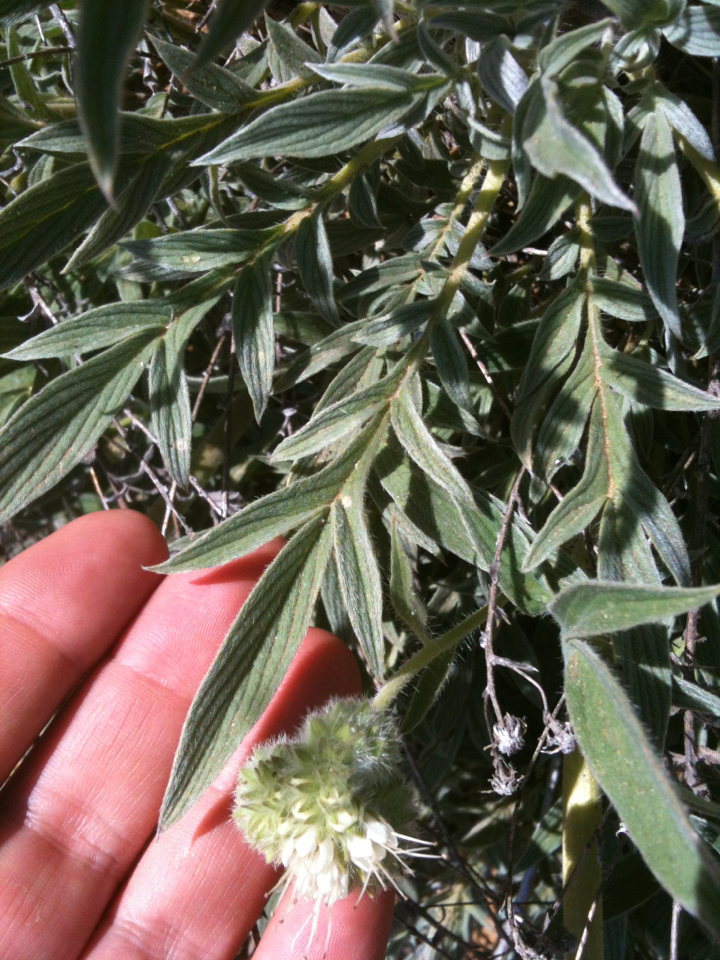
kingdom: Plantae
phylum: Tracheophyta
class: Magnoliopsida
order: Boraginales
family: Hydrophyllaceae
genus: Phacelia
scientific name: Phacelia imbricata
